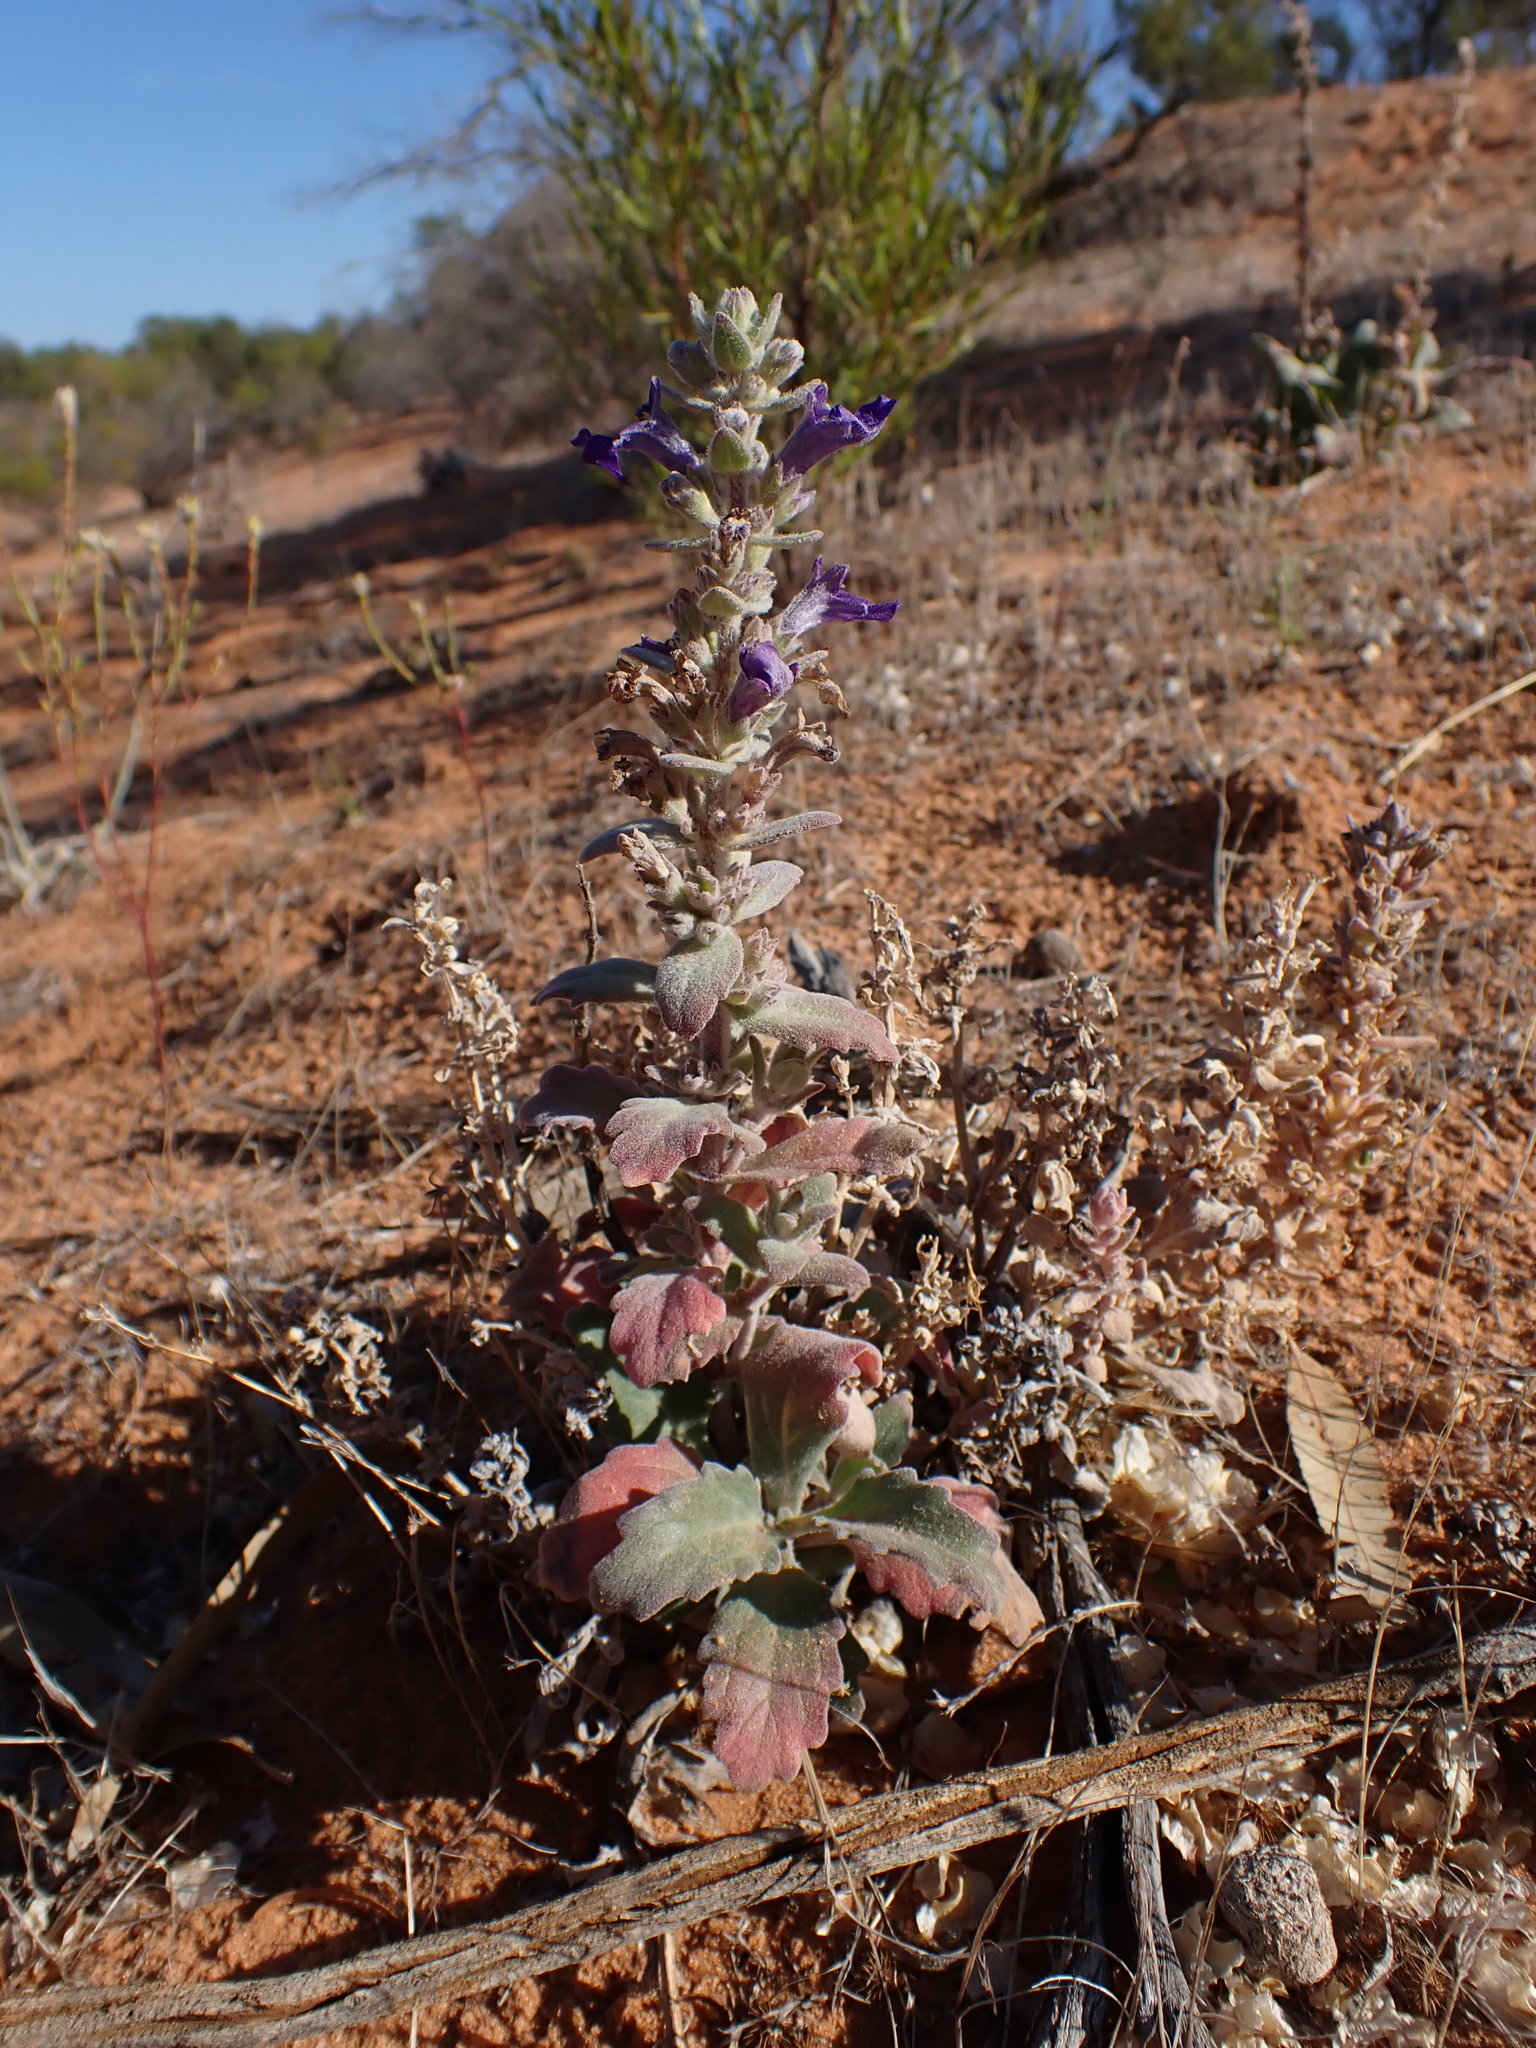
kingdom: Plantae
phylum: Tracheophyta
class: Magnoliopsida
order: Lamiales
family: Lamiaceae
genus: Ajuga
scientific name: Ajuga australis
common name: Australian bugle
